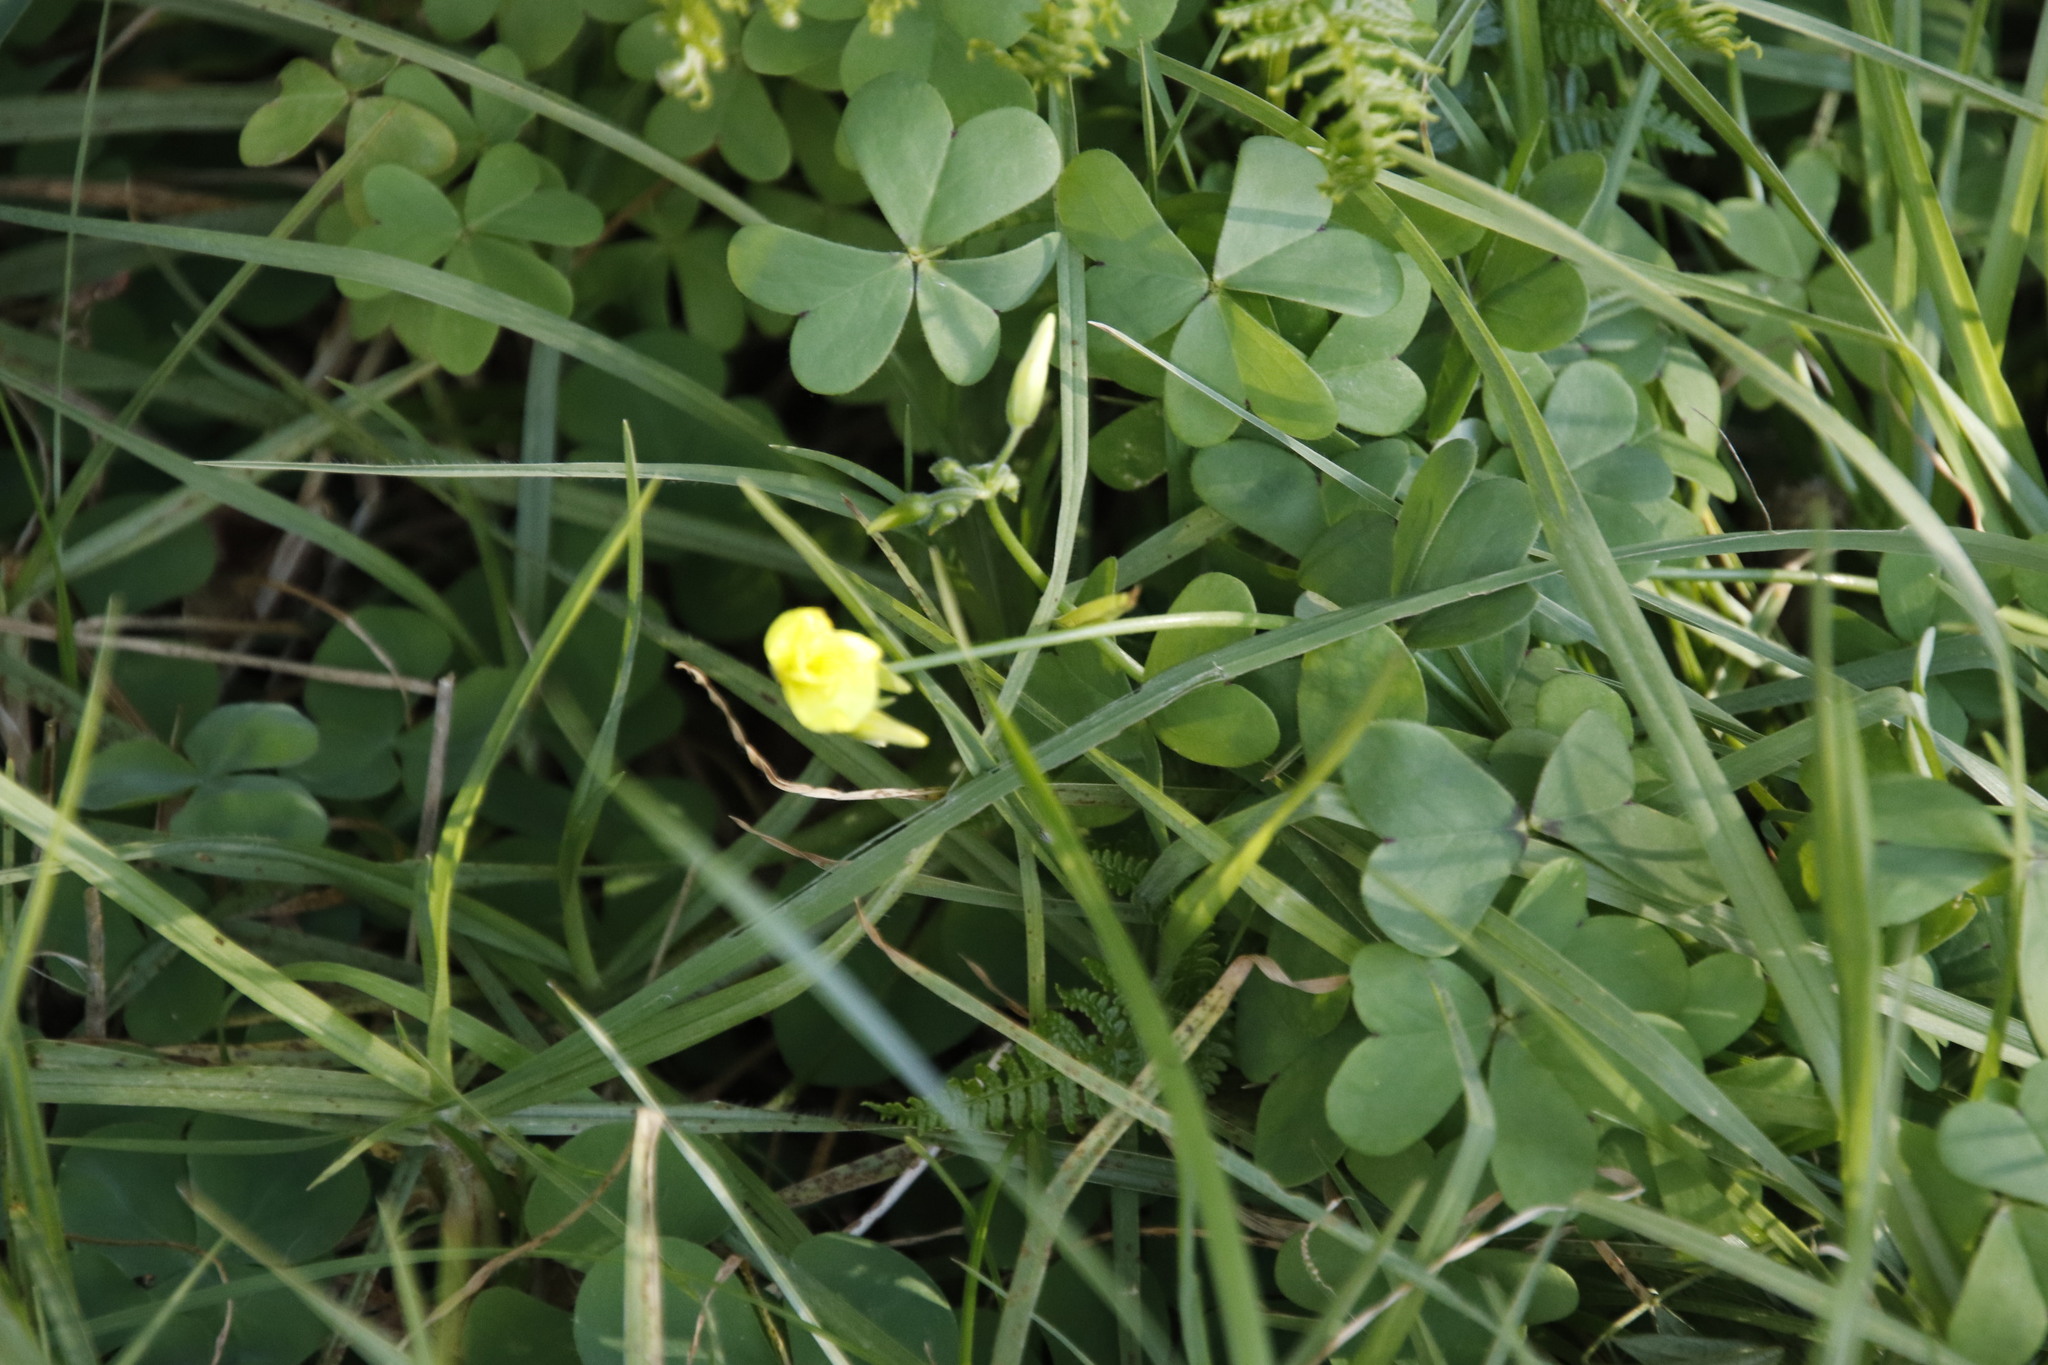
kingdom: Plantae
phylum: Tracheophyta
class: Magnoliopsida
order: Oxalidales
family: Oxalidaceae
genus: Oxalis
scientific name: Oxalis pes-caprae
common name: Bermuda-buttercup
